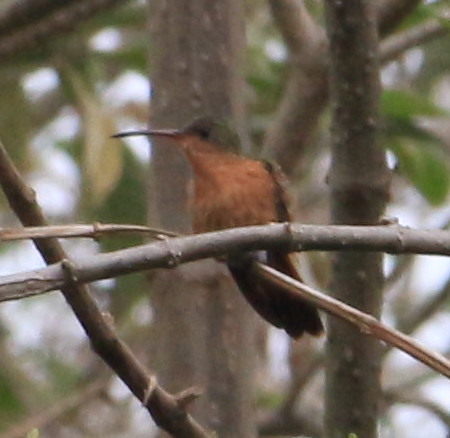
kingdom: Animalia
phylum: Chordata
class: Aves
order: Apodiformes
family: Trochilidae
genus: Amazilia
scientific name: Amazilia rutila
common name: Cinnamon hummingbird
